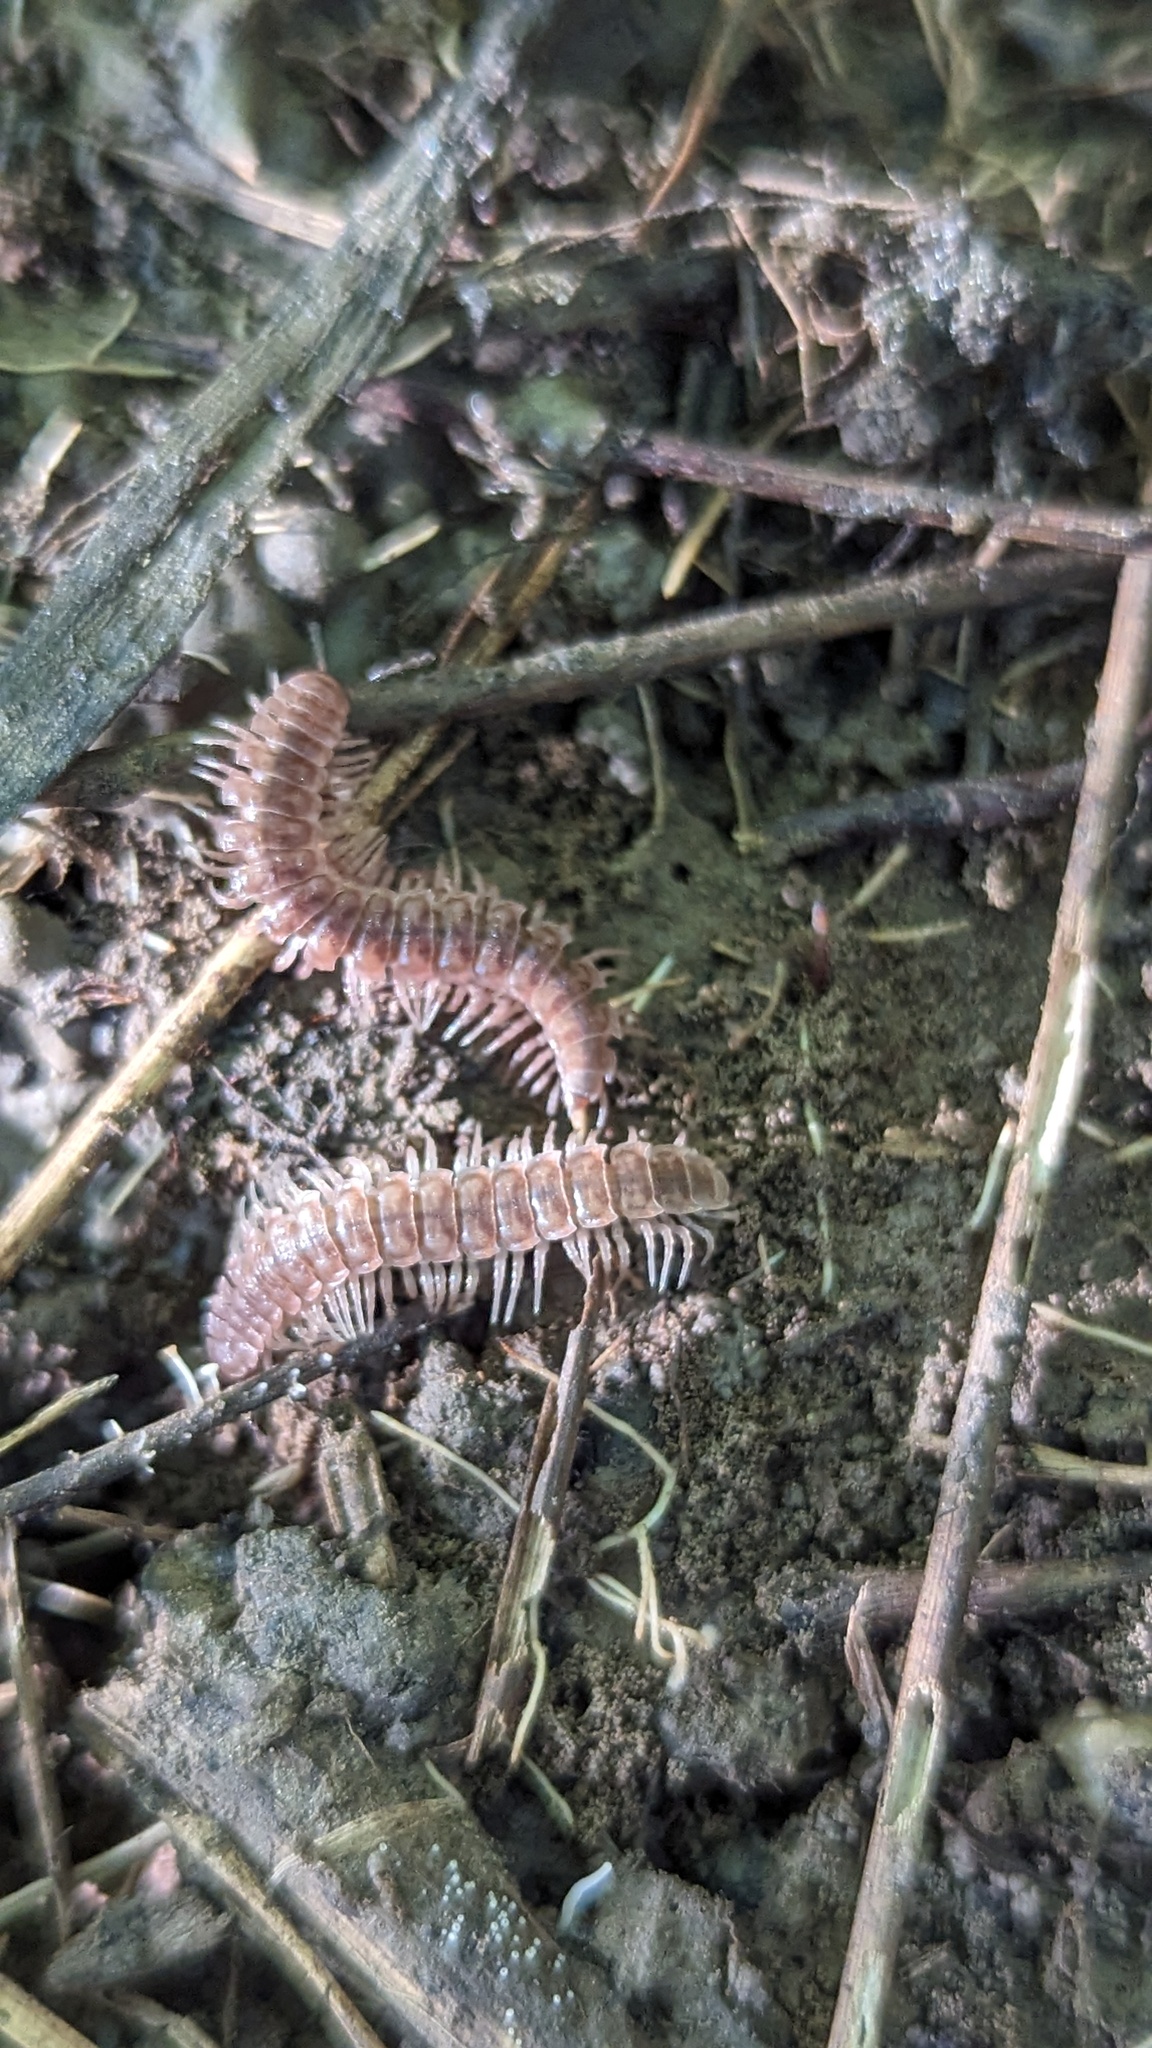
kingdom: Animalia
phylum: Arthropoda
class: Diplopoda
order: Polydesmida
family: Polydesmidae
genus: Pseudopolydesmus
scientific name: Pseudopolydesmus serratus
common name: Common pink flat-back millipede
